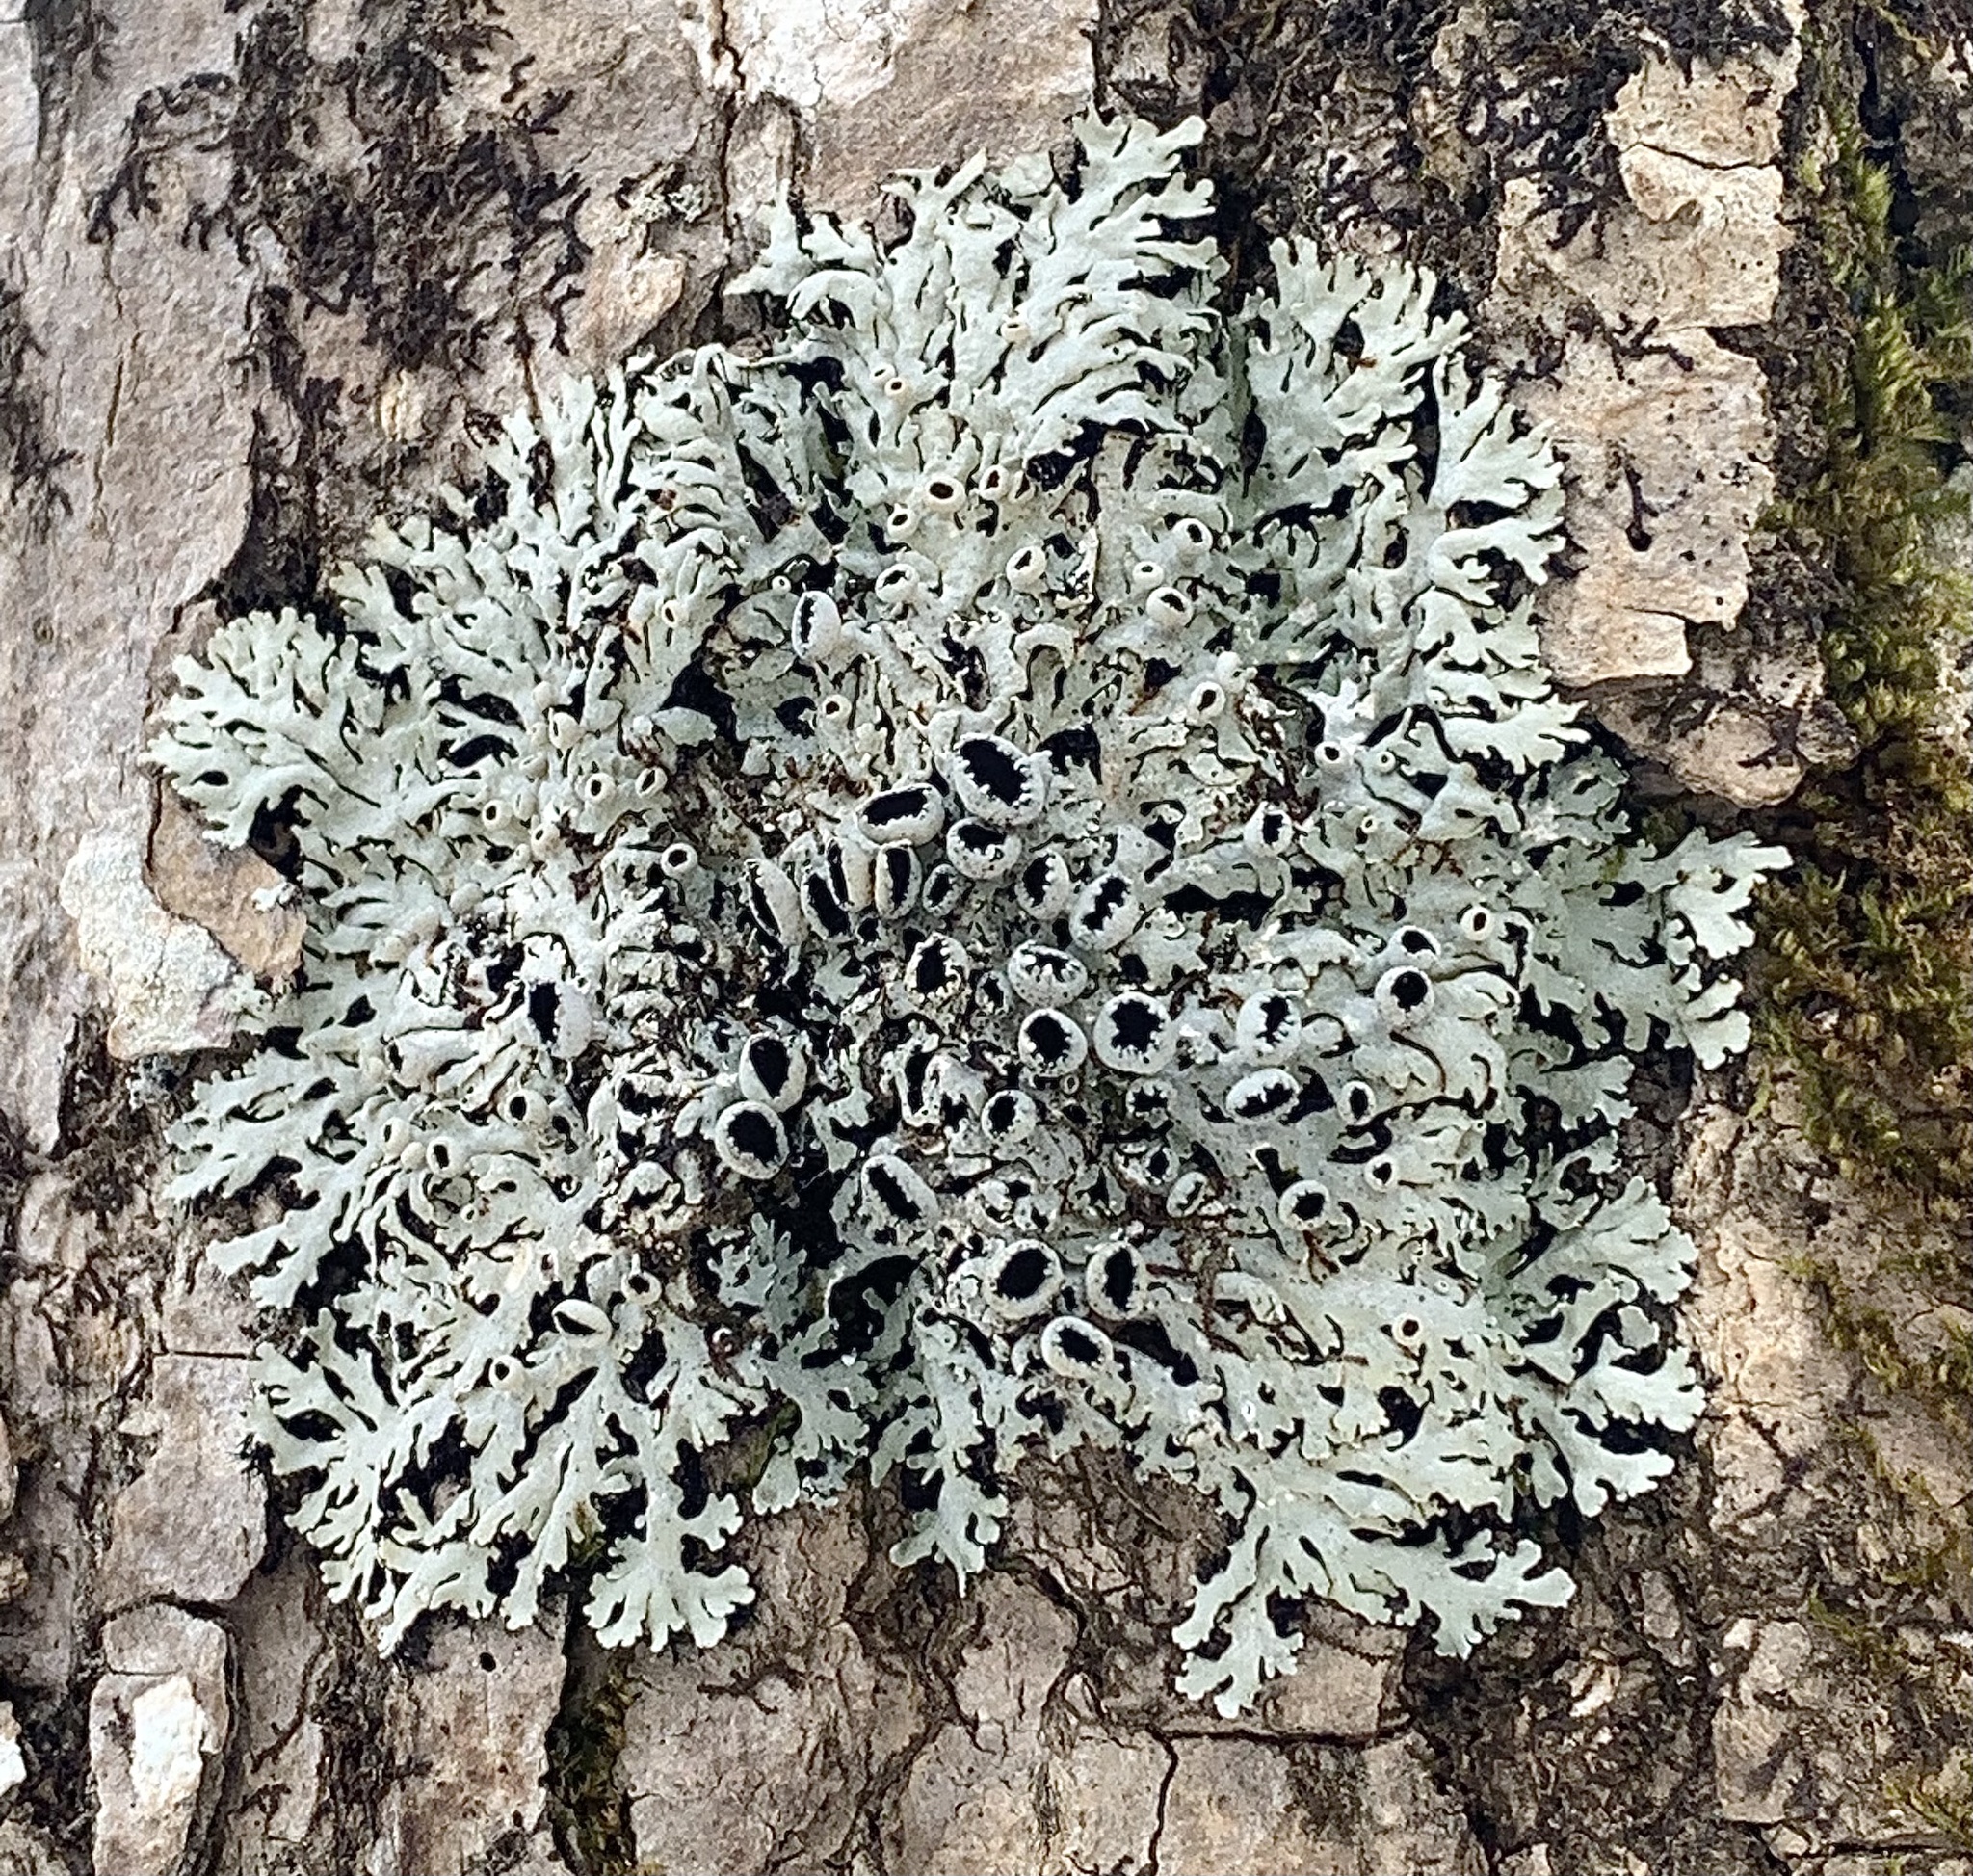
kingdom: Fungi
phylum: Ascomycota
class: Lecanoromycetes
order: Caliciales
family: Physciaceae
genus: Polyblastidium
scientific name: Polyblastidium hypoleucum
